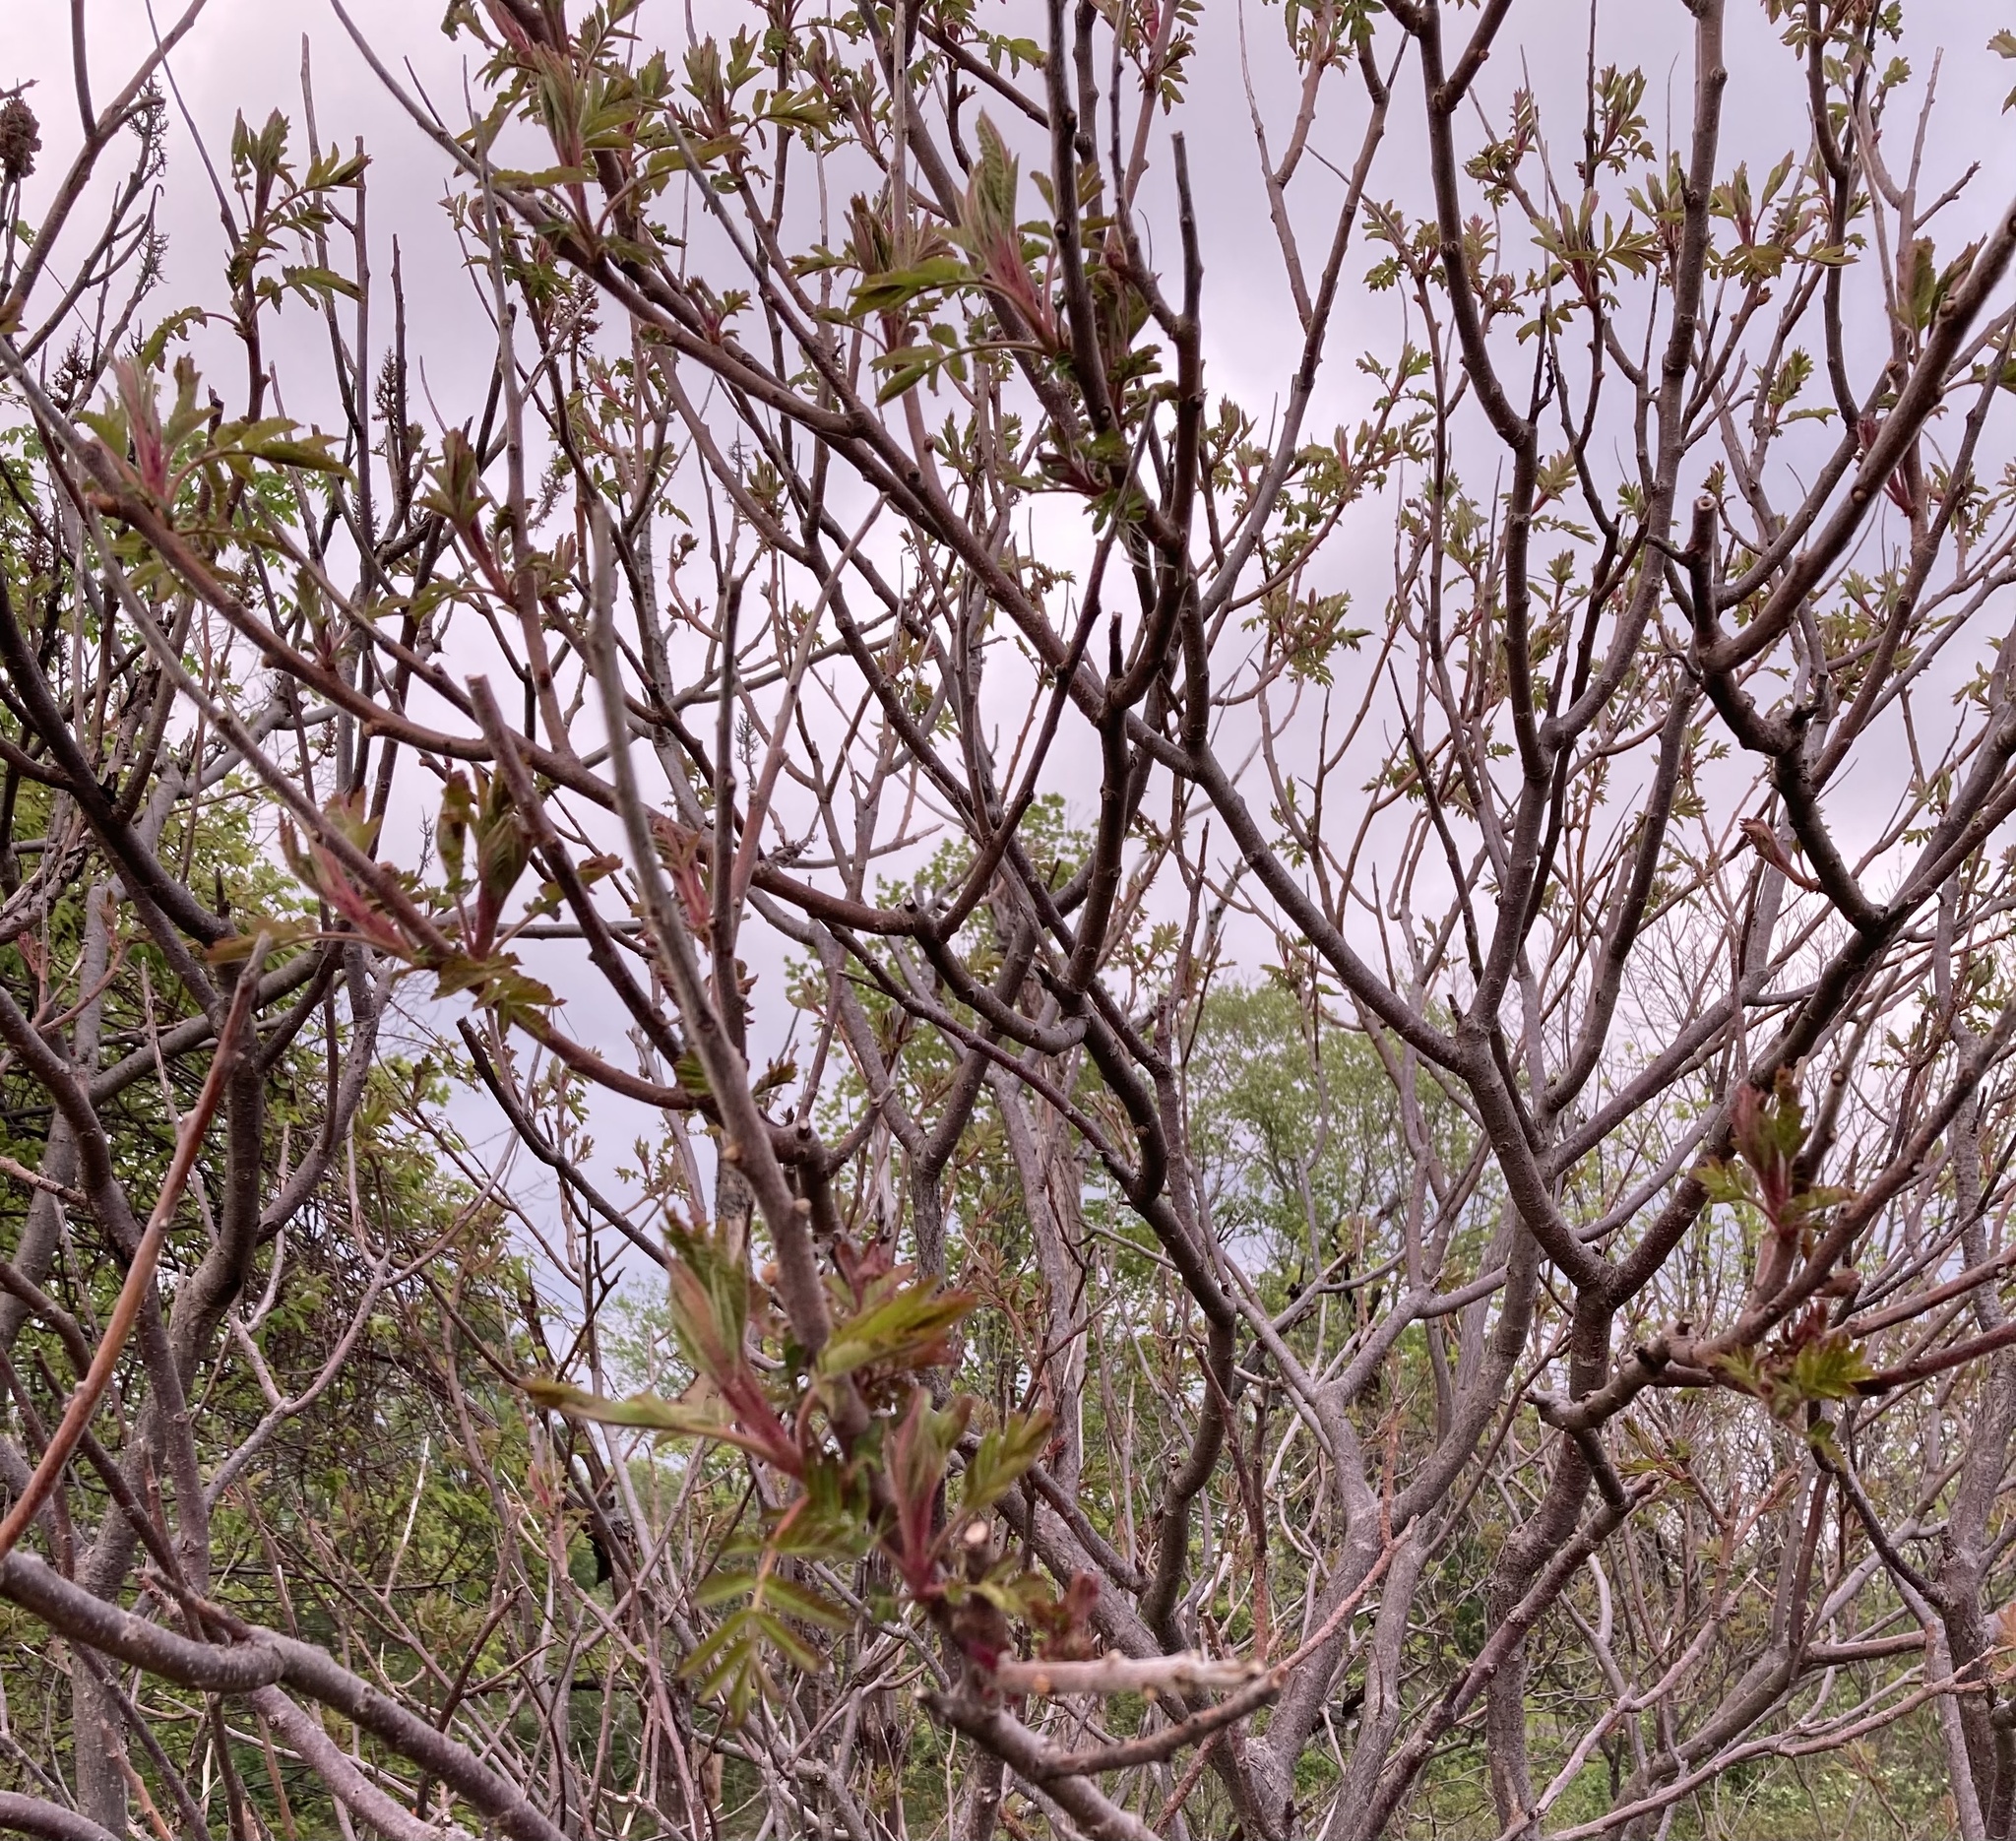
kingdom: Plantae
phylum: Tracheophyta
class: Magnoliopsida
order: Sapindales
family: Anacardiaceae
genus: Rhus
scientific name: Rhus typhina
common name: Staghorn sumac
